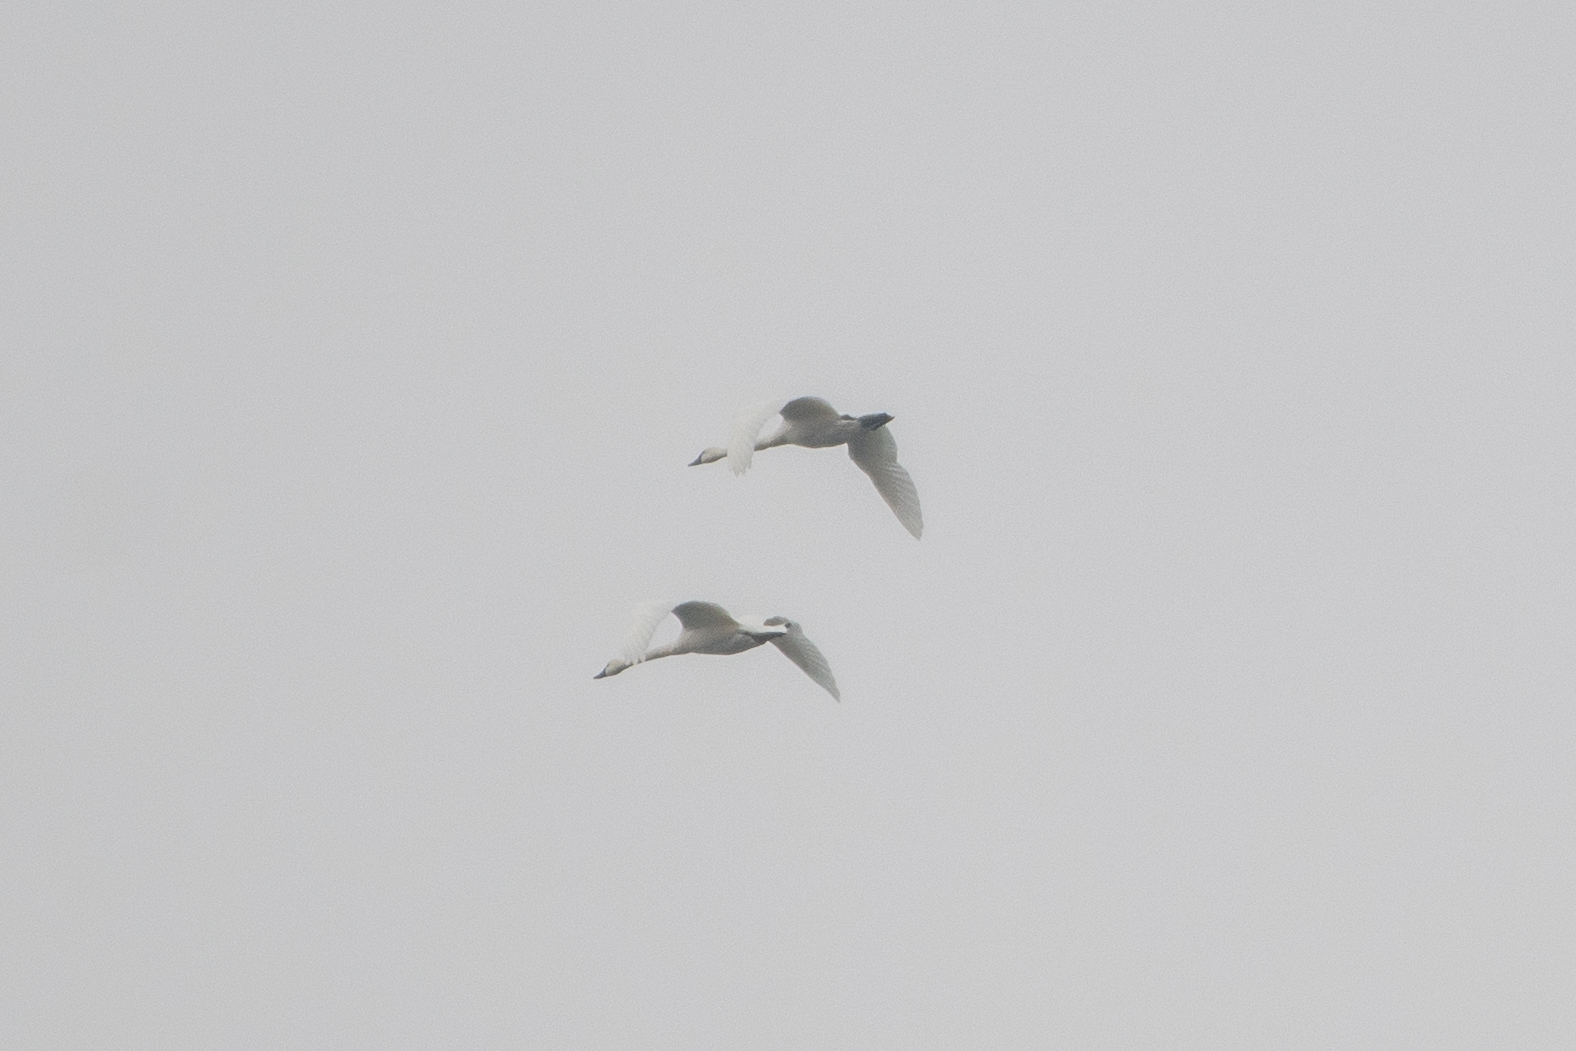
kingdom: Animalia
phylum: Chordata
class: Aves
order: Anseriformes
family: Anatidae
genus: Cygnus
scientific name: Cygnus columbianus
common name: Tundra swan
